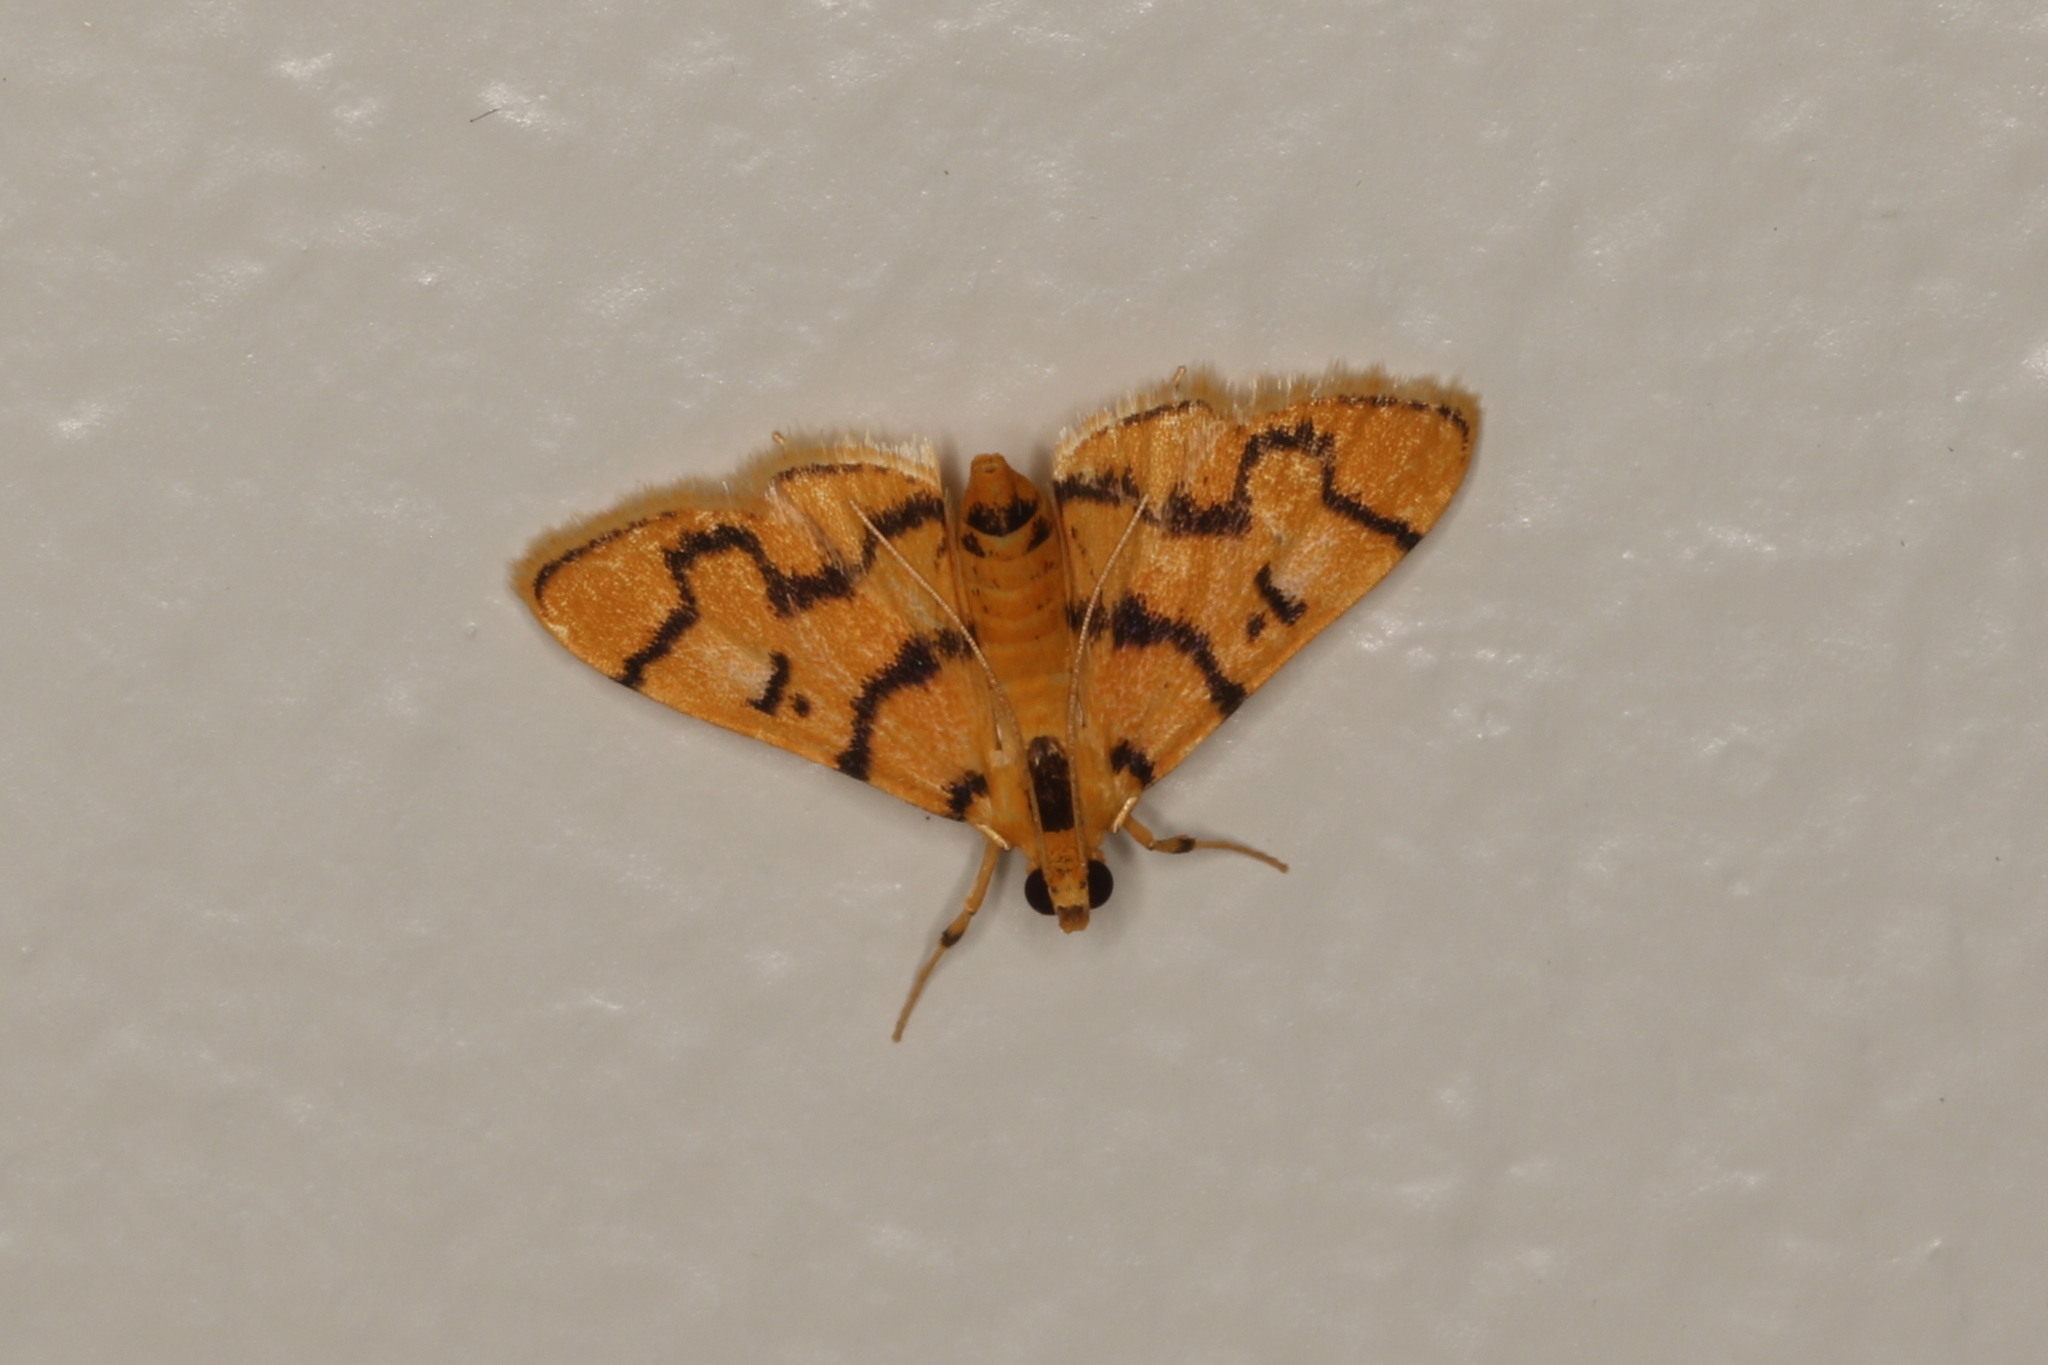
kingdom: Animalia
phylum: Arthropoda
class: Insecta
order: Lepidoptera
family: Crambidae
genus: Dichocrocis
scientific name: Dichocrocis erixantha
